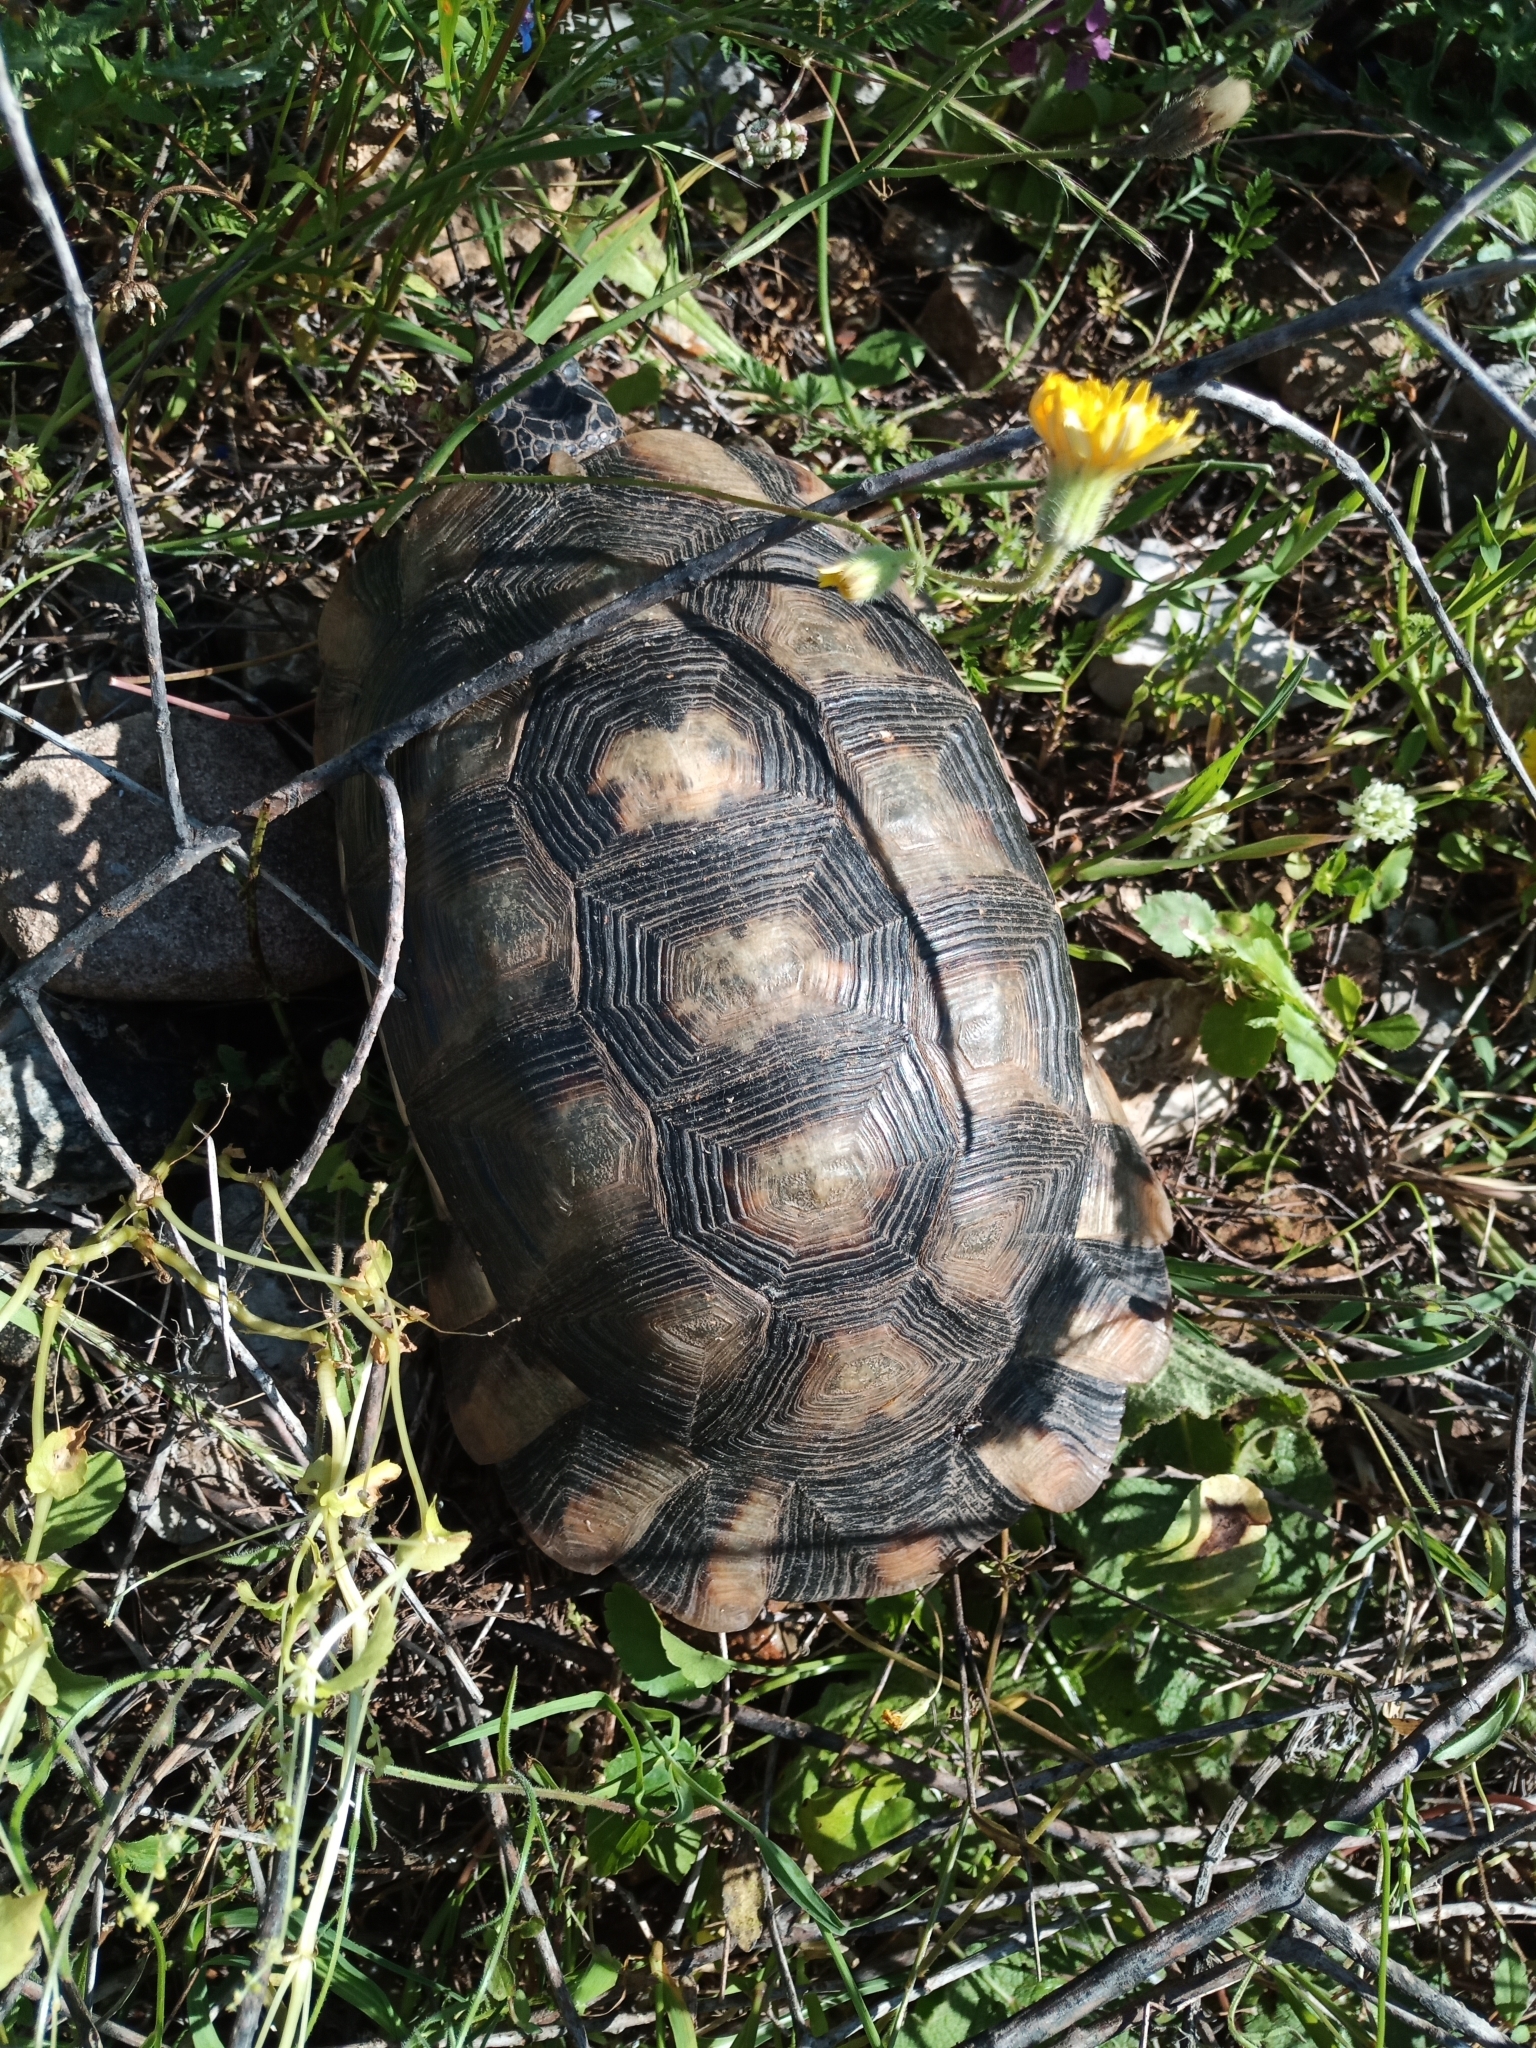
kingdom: Animalia
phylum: Chordata
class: Testudines
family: Testudinidae
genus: Testudo
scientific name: Testudo marginata
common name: Marginated tortoise
